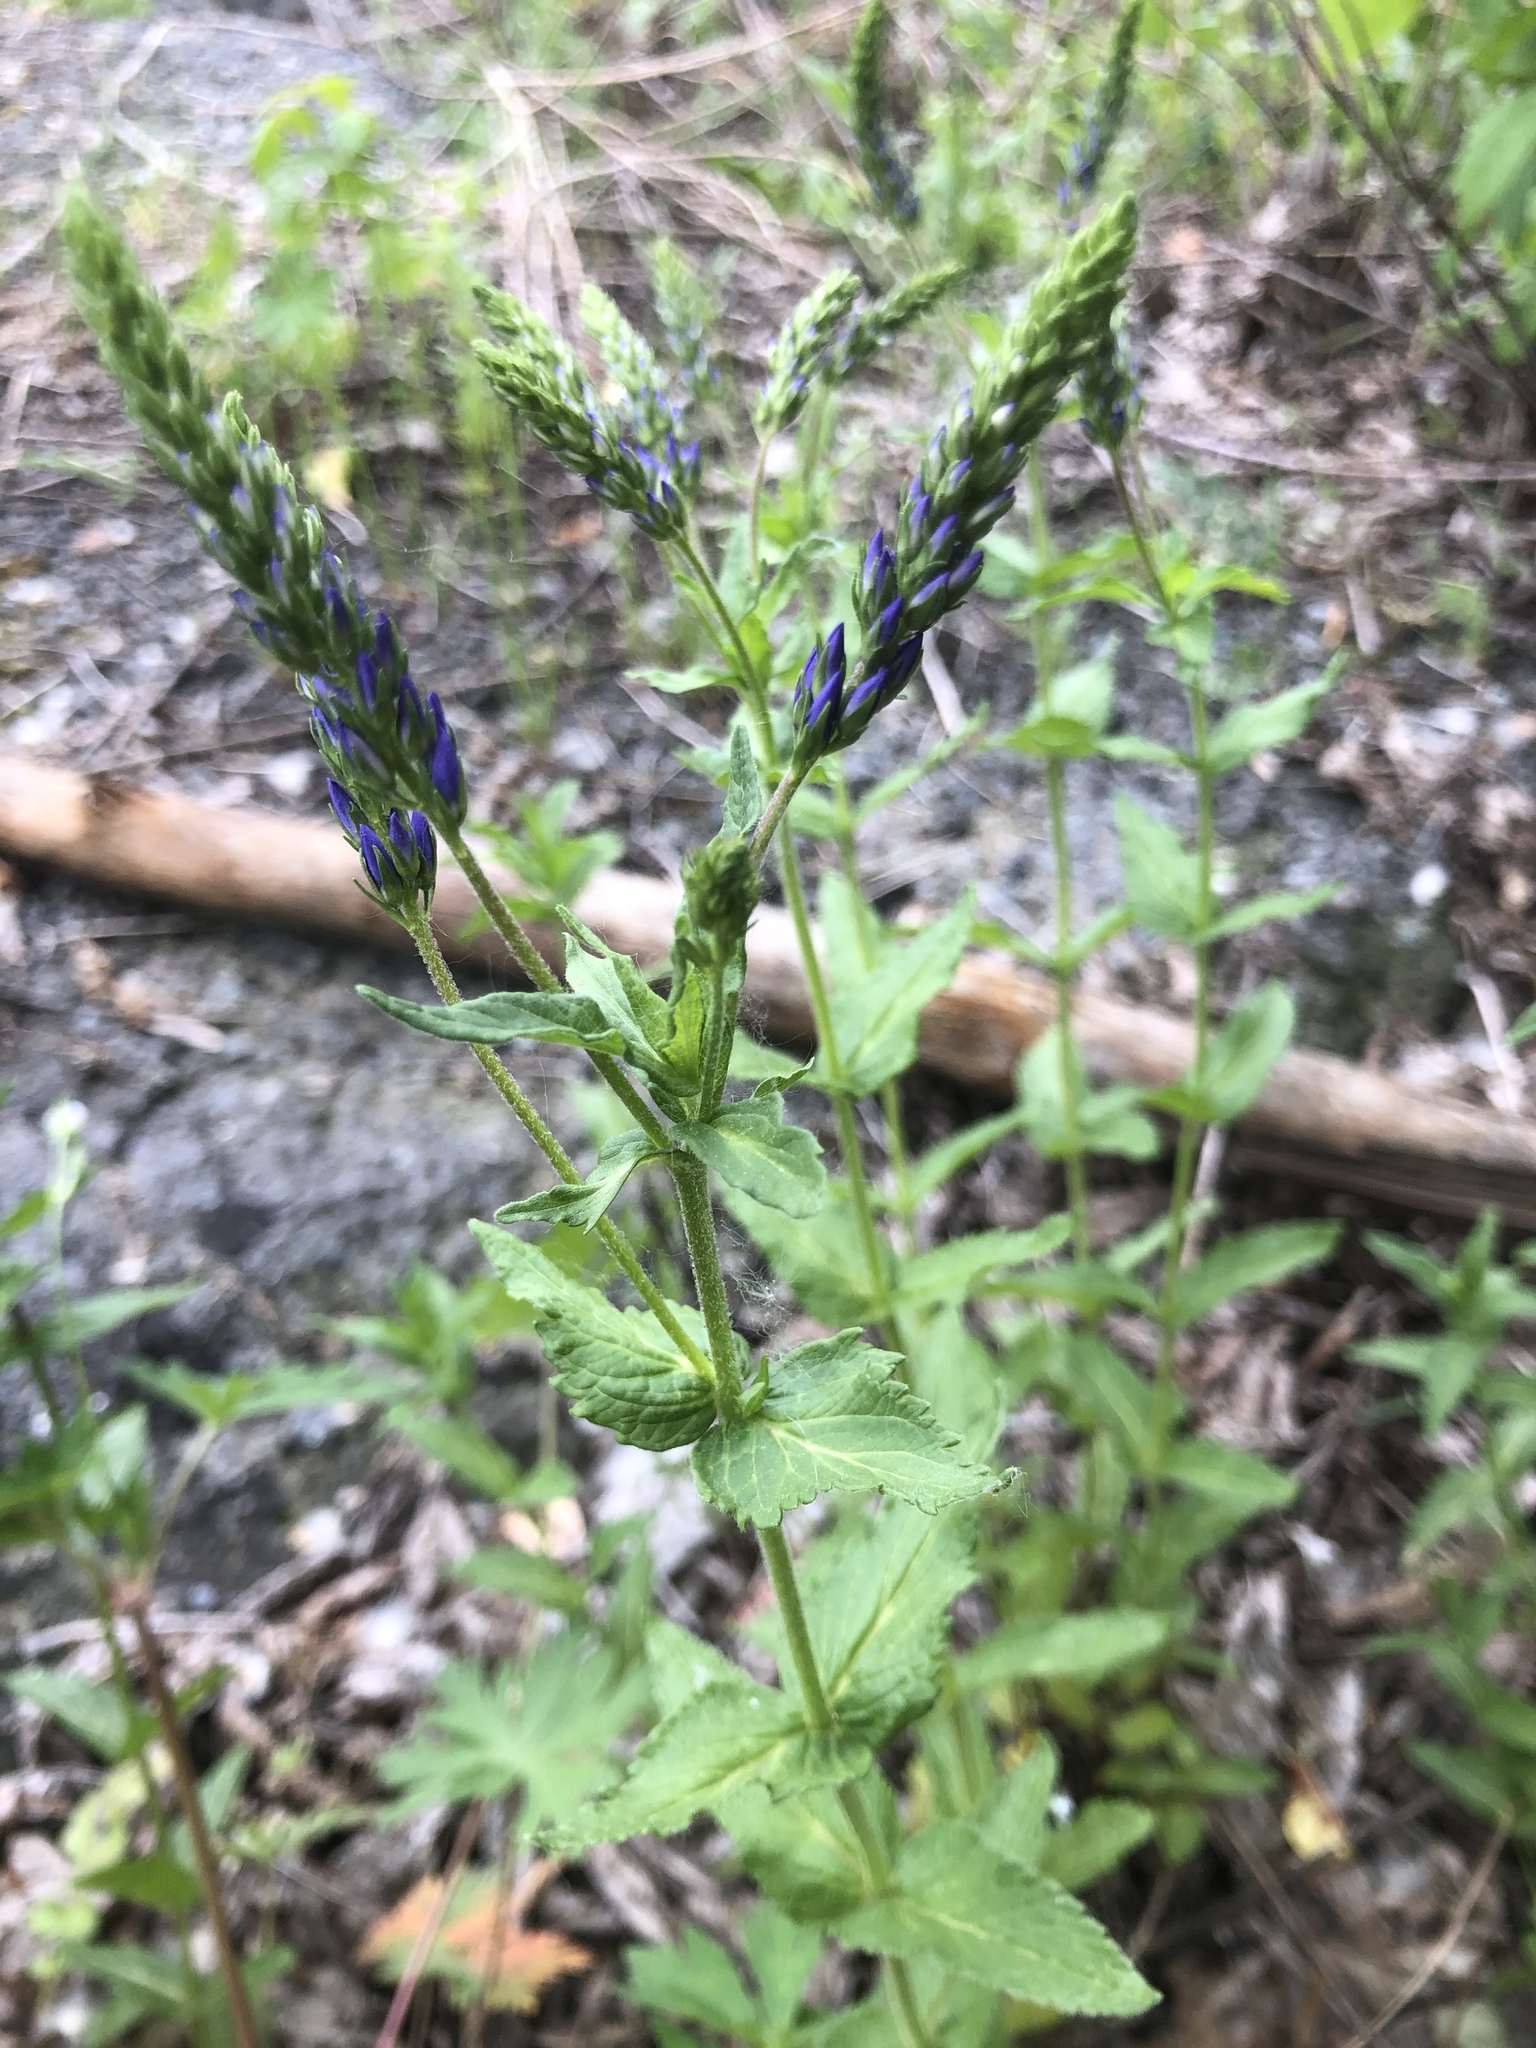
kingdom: Plantae
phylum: Tracheophyta
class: Magnoliopsida
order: Lamiales
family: Plantaginaceae
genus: Veronica
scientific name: Veronica teucrium
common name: Large speedwell
